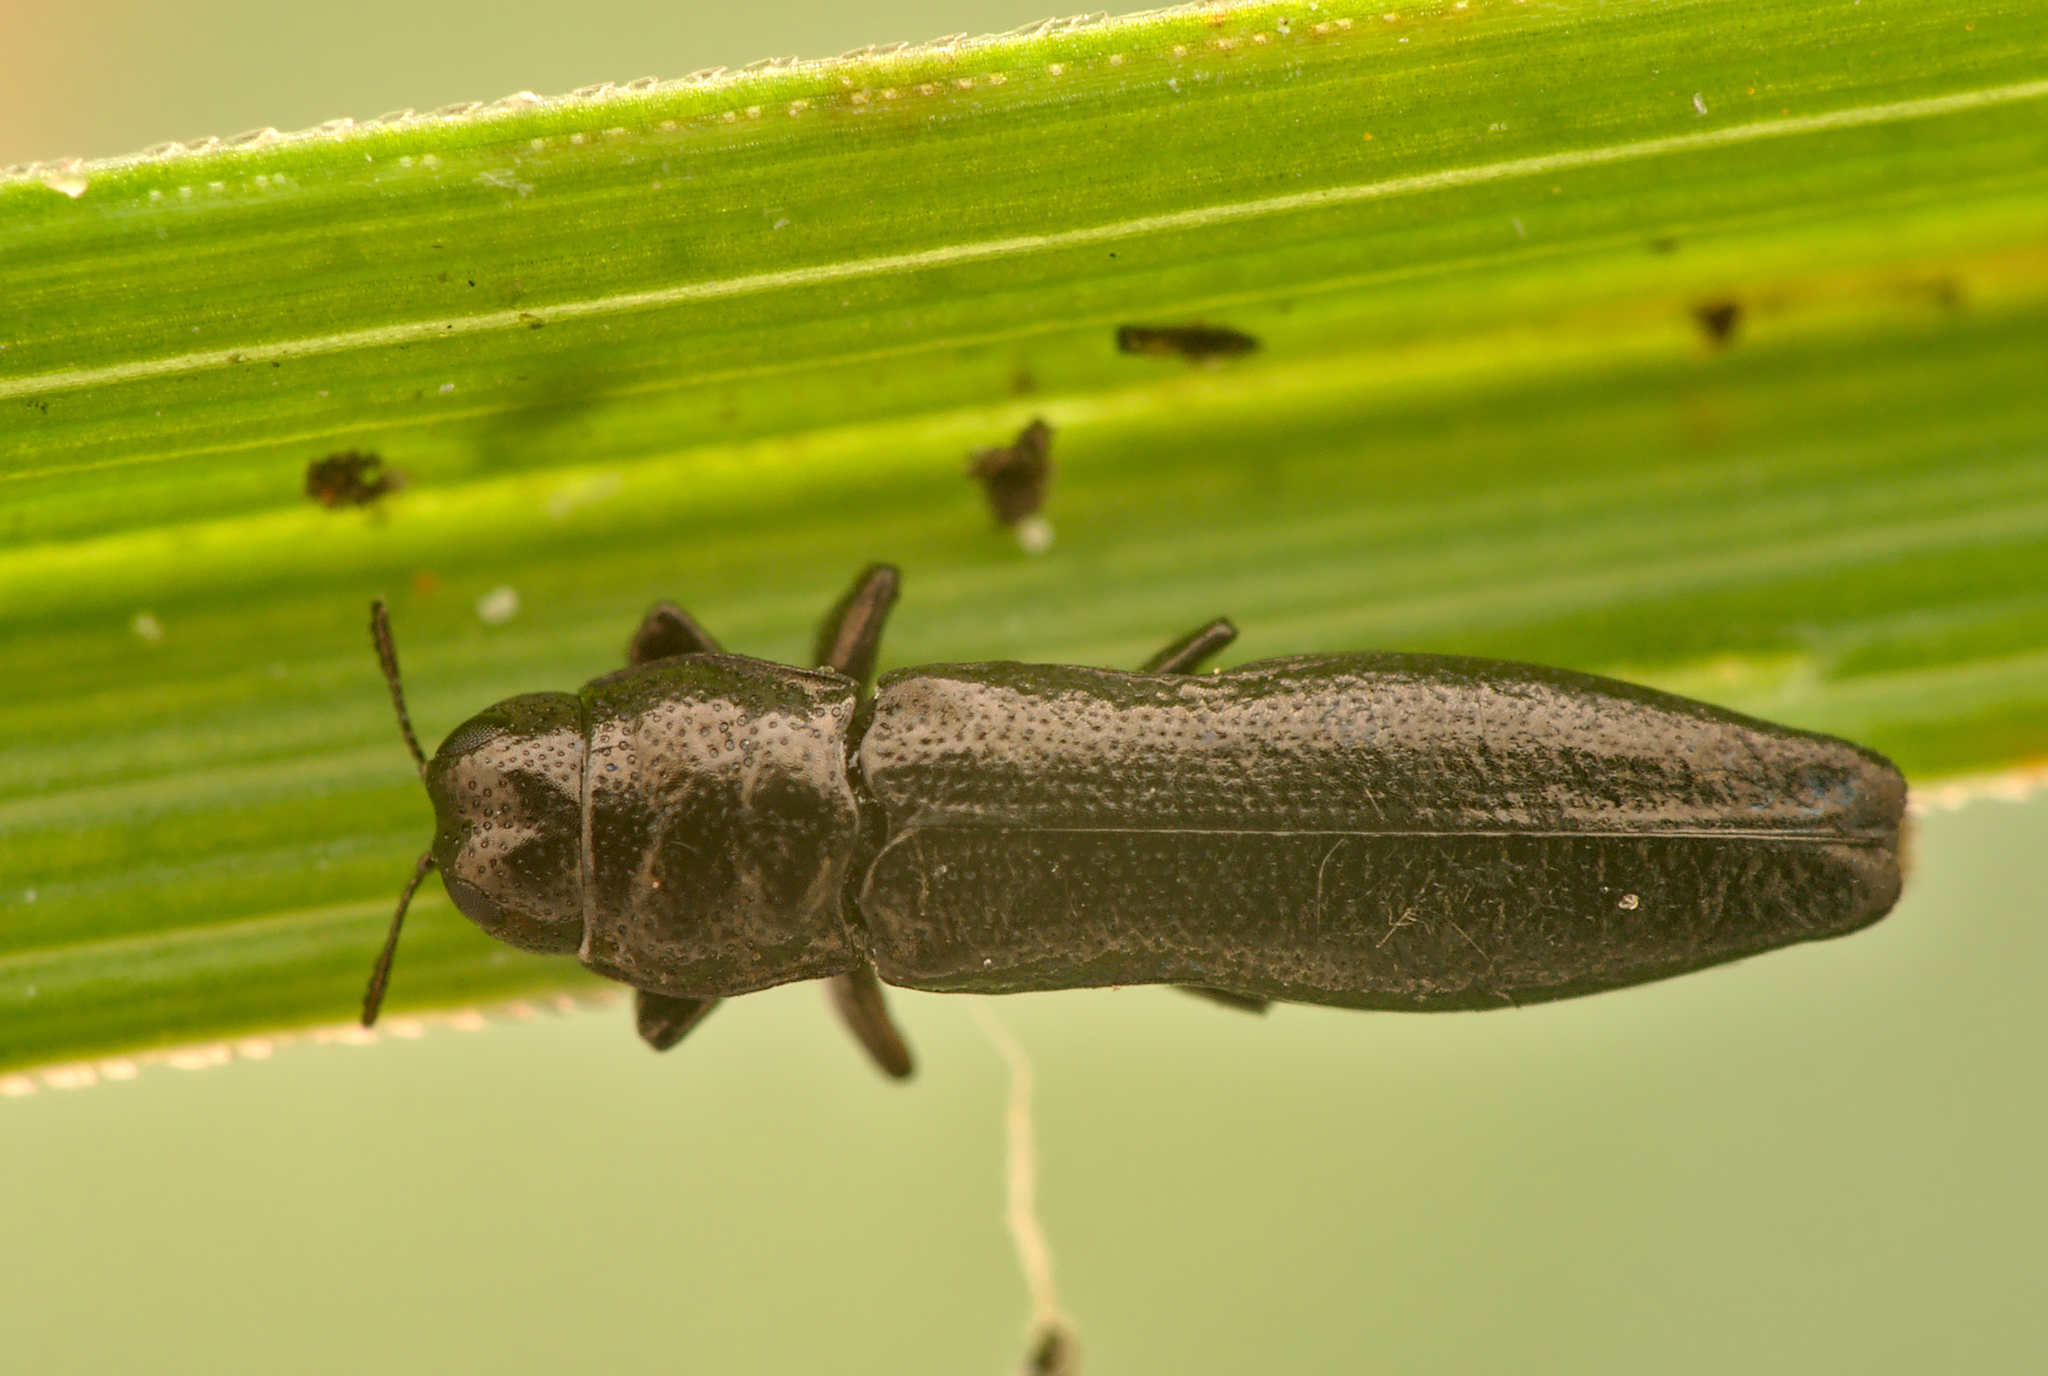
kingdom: Animalia
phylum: Arthropoda
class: Insecta
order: Coleoptera
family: Buprestidae
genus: Aphanisticus
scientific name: Aphanisticus elongatus
